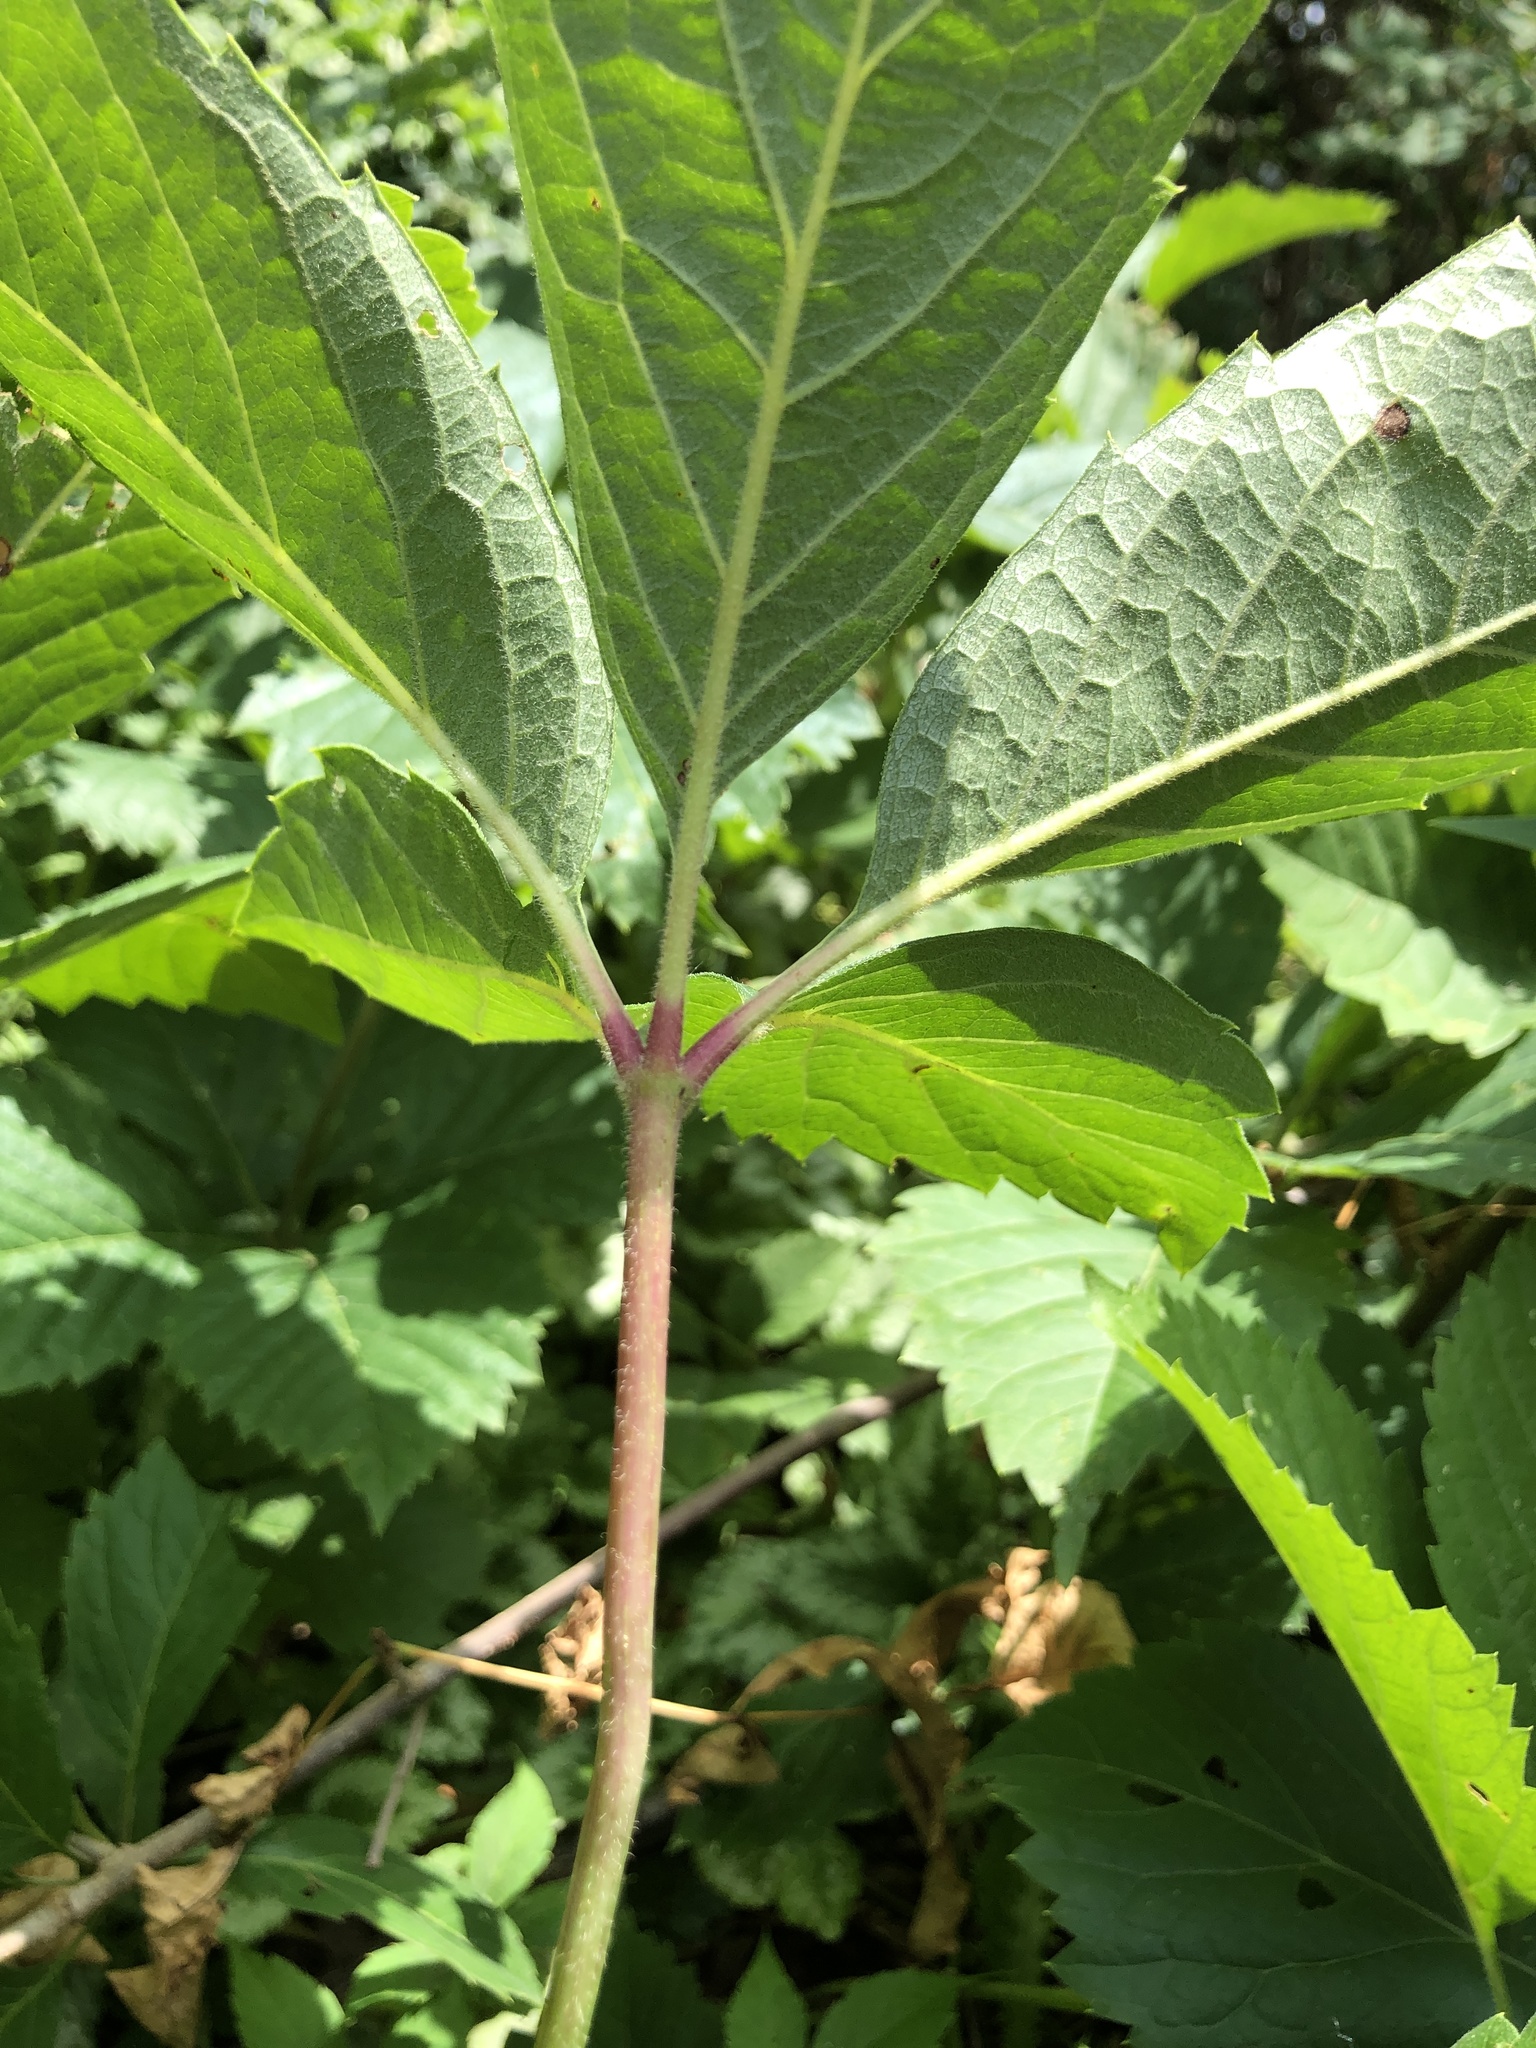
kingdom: Plantae
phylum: Tracheophyta
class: Magnoliopsida
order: Vitales
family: Vitaceae
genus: Parthenocissus
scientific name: Parthenocissus quinquefolia
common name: Virginia-creeper
